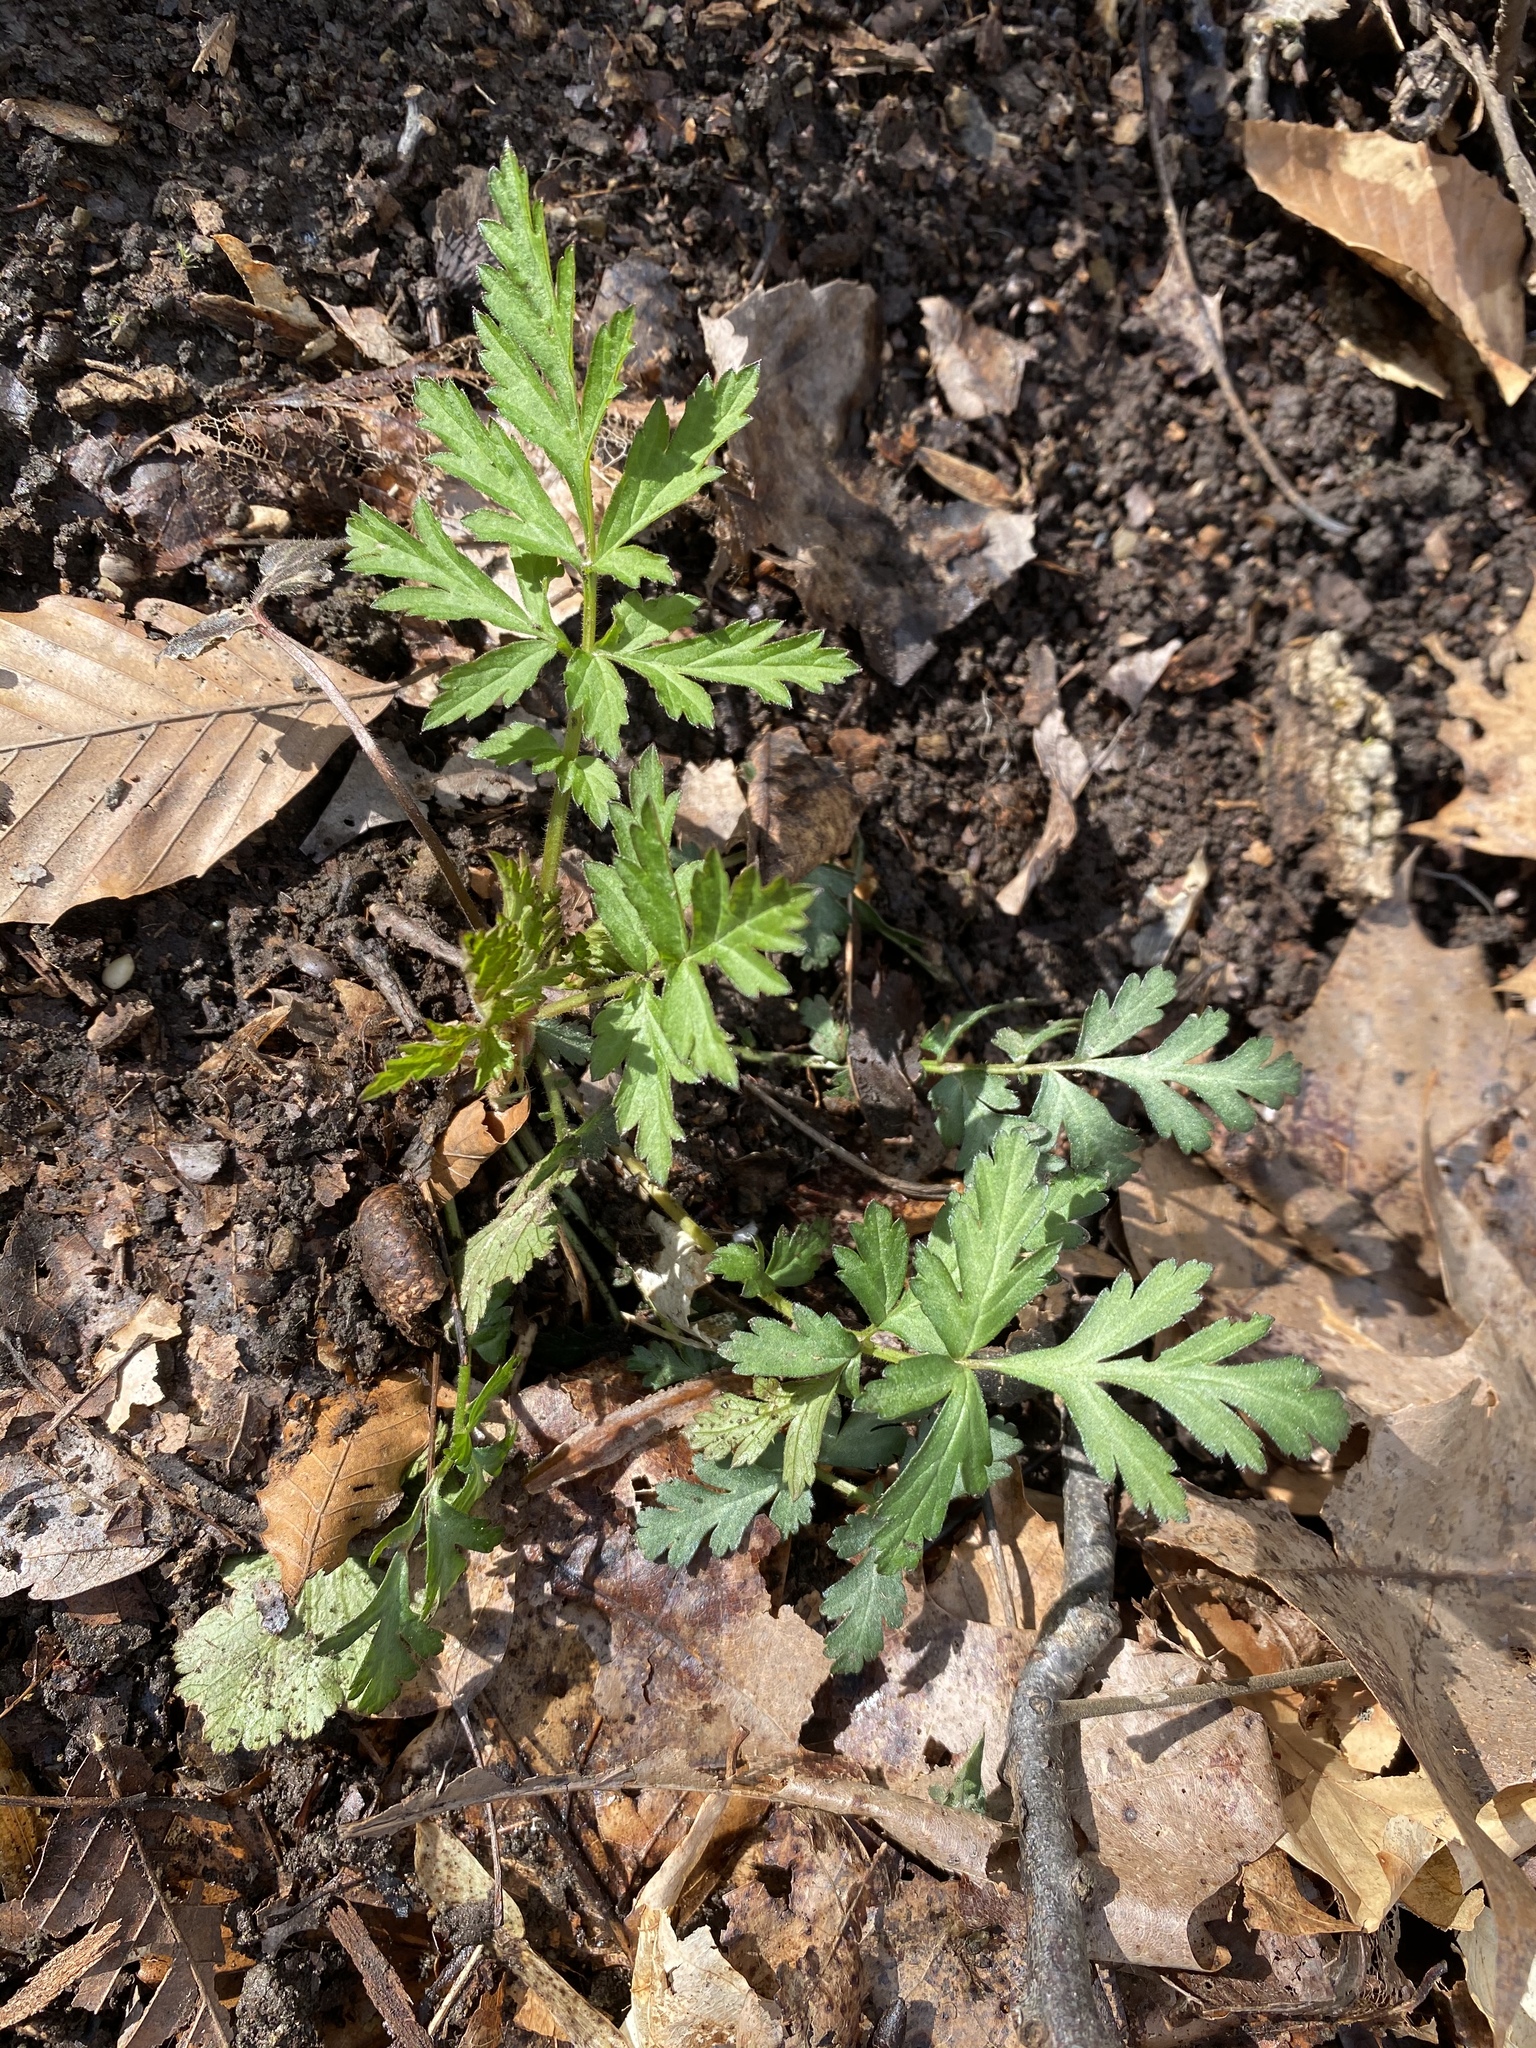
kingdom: Plantae
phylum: Tracheophyta
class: Magnoliopsida
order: Rosales
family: Rosaceae
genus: Geum
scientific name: Geum canadense
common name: White avens
